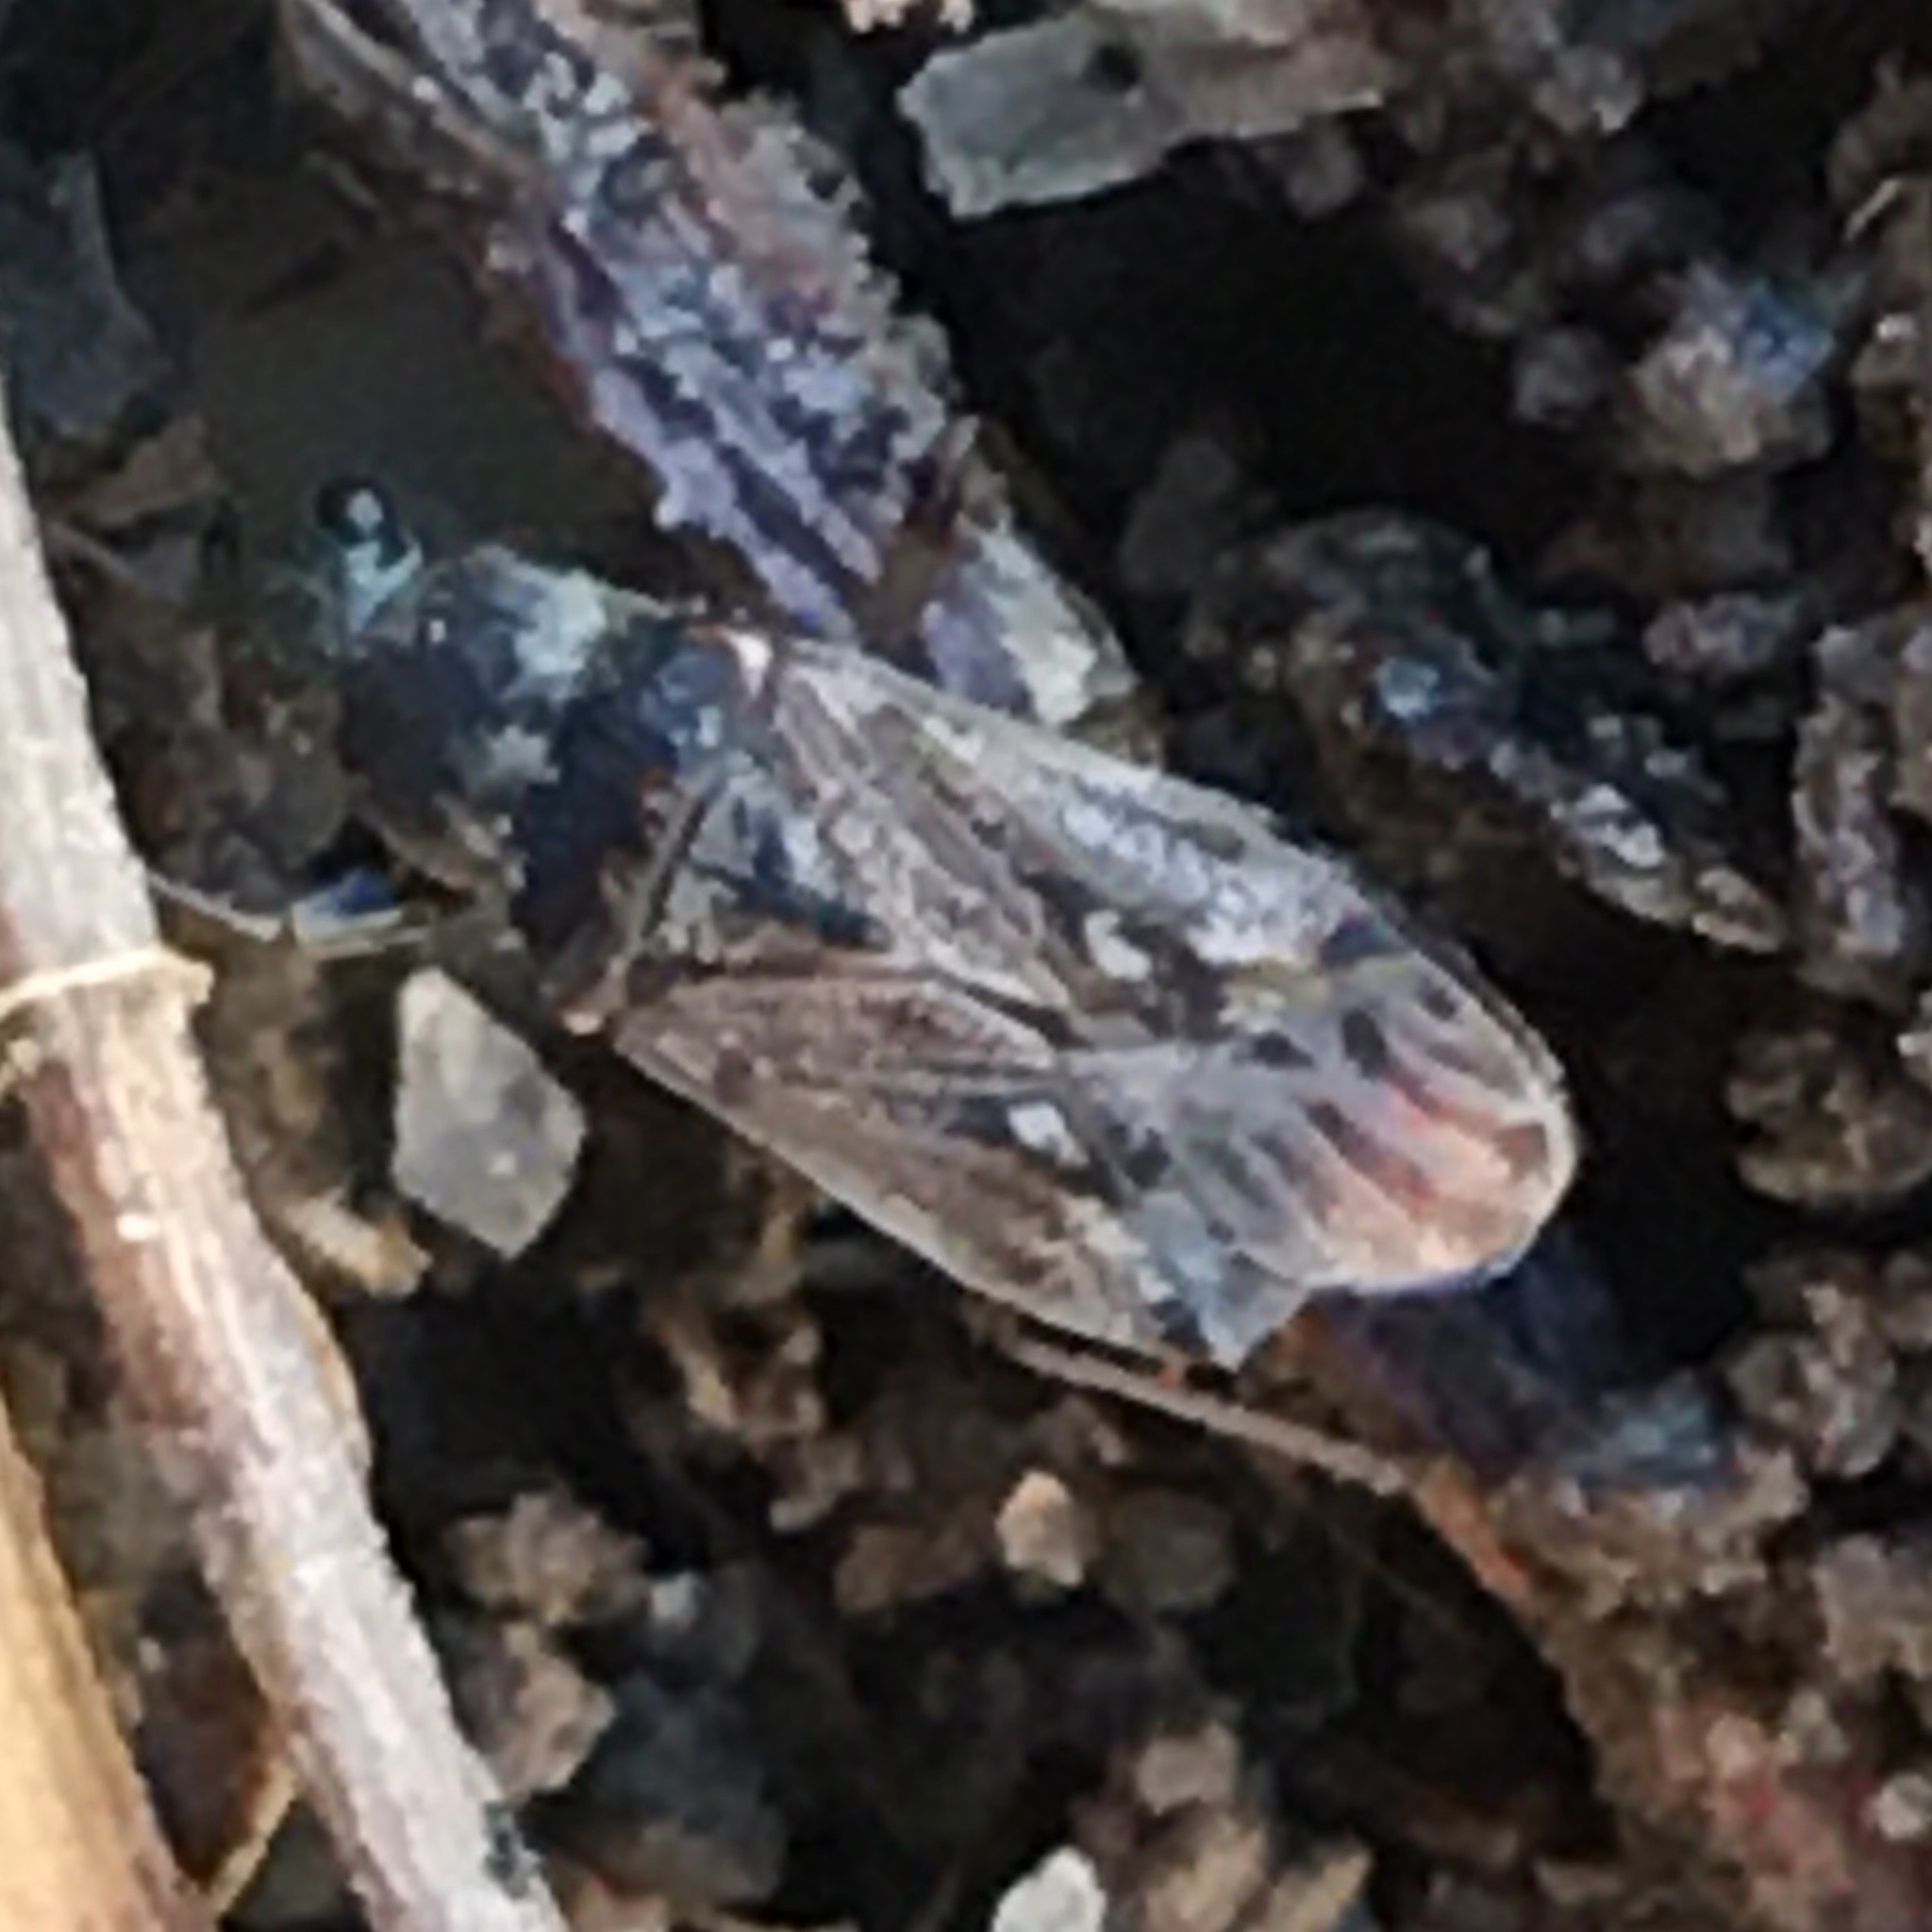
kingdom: Animalia
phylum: Arthropoda
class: Insecta
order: Hemiptera
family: Rhyparochromidae
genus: Pseudopachybrachius
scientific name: Pseudopachybrachius basalis
